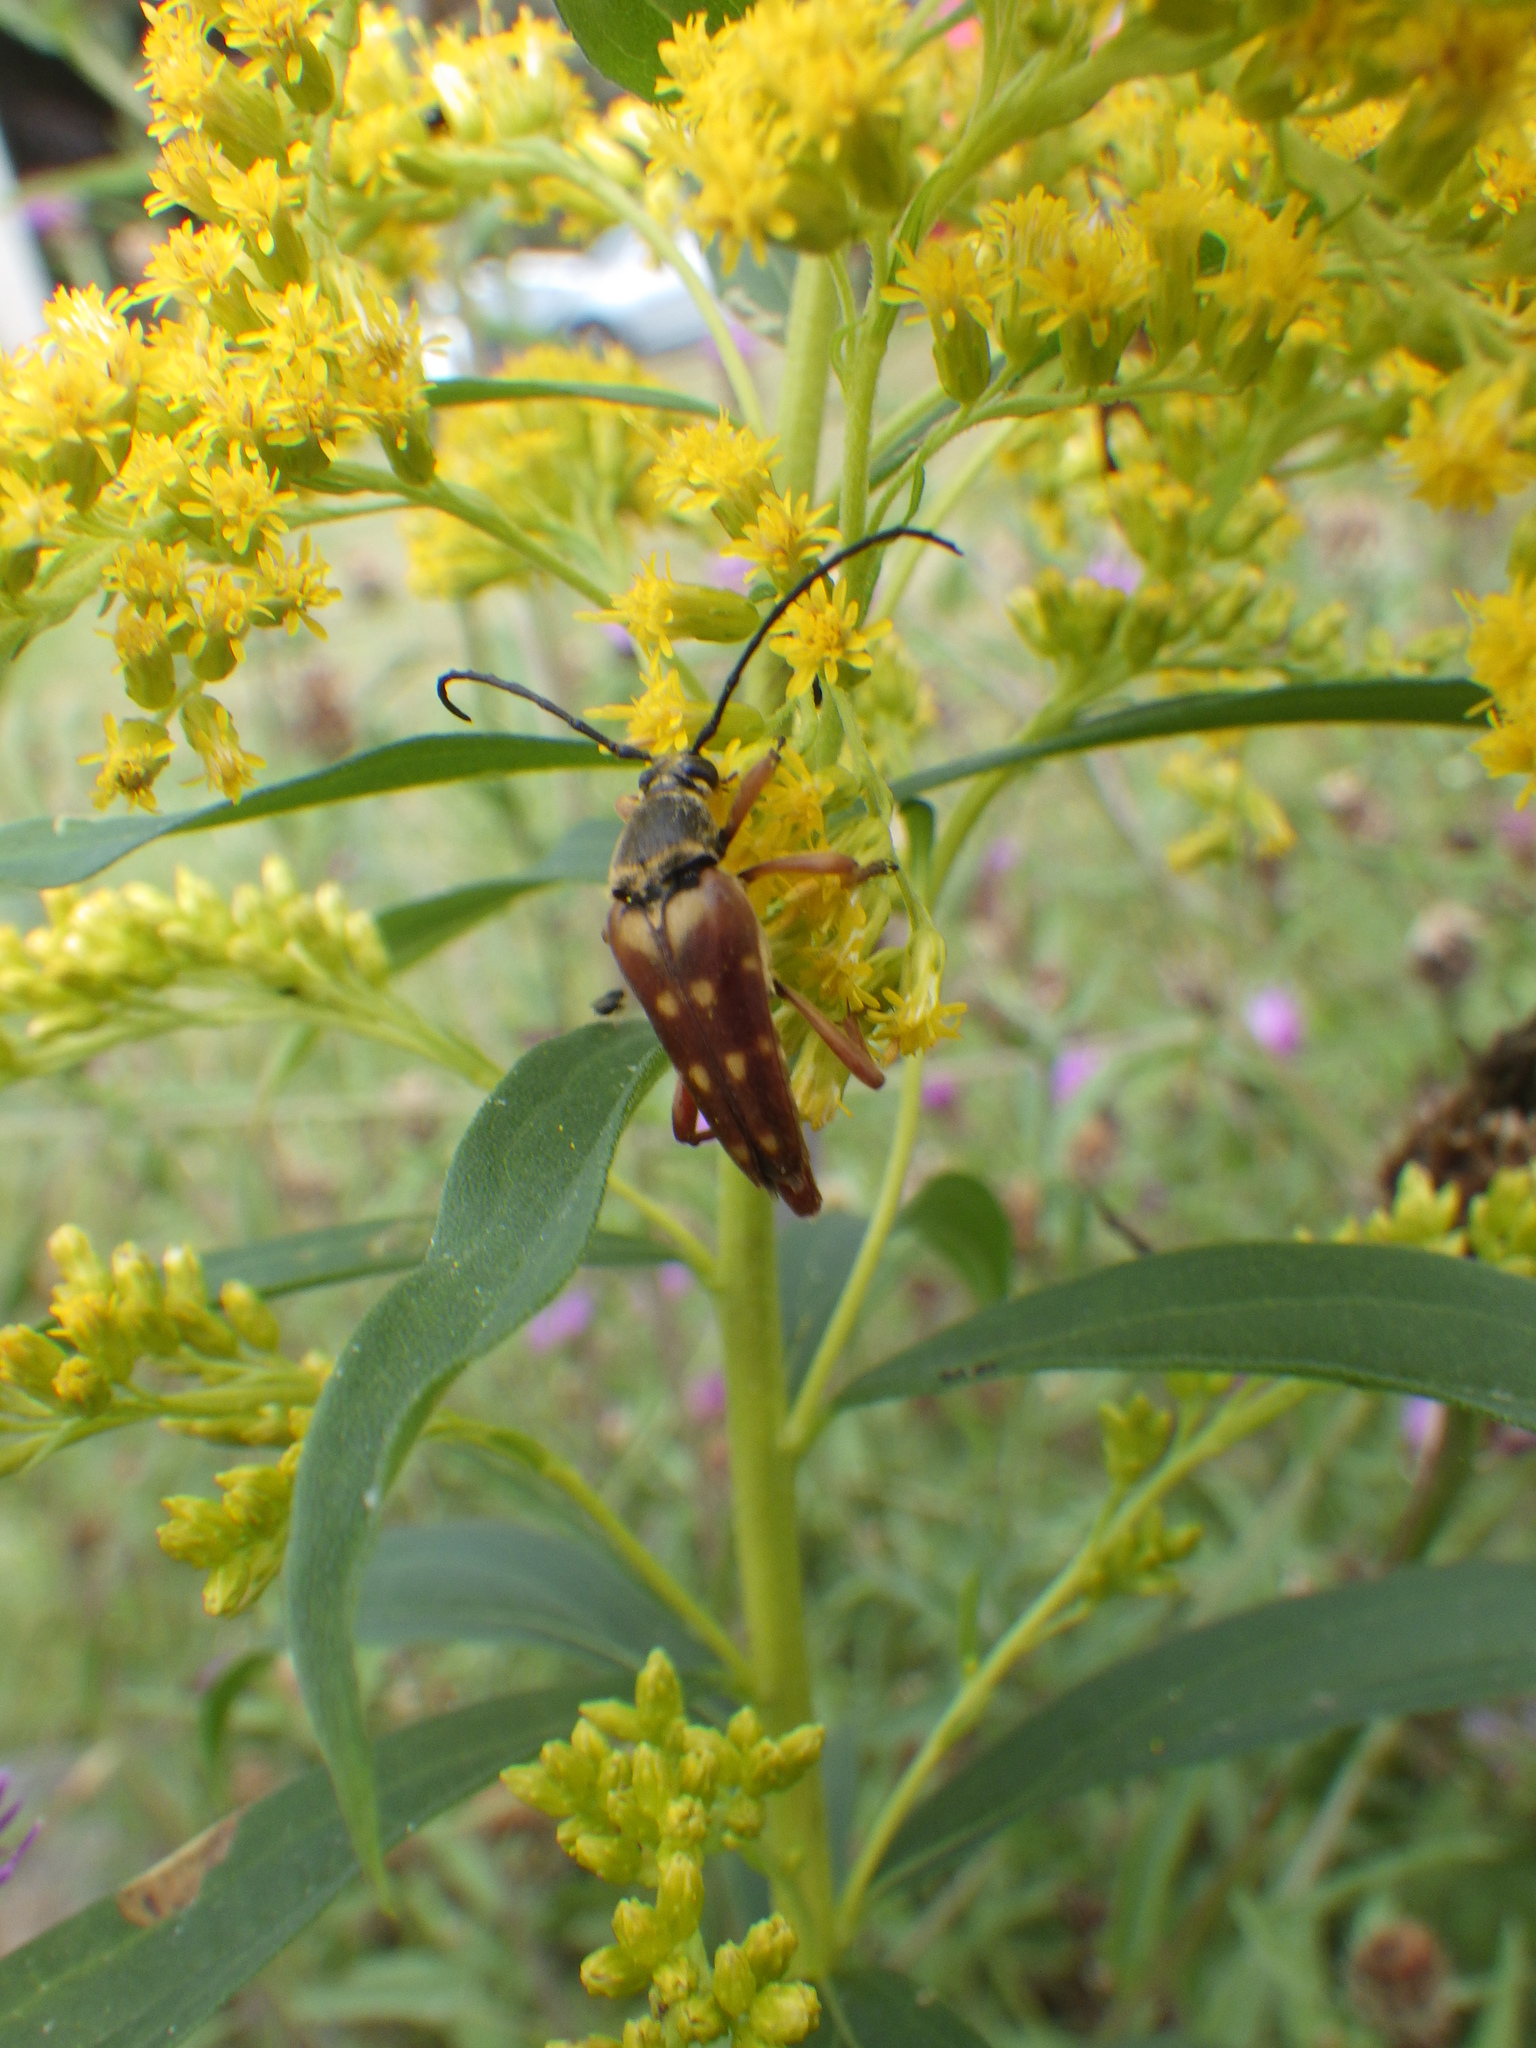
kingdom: Animalia
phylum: Arthropoda
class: Insecta
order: Coleoptera
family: Cerambycidae
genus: Typocerus
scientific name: Typocerus velutinus
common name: Banded longhorn beetle
